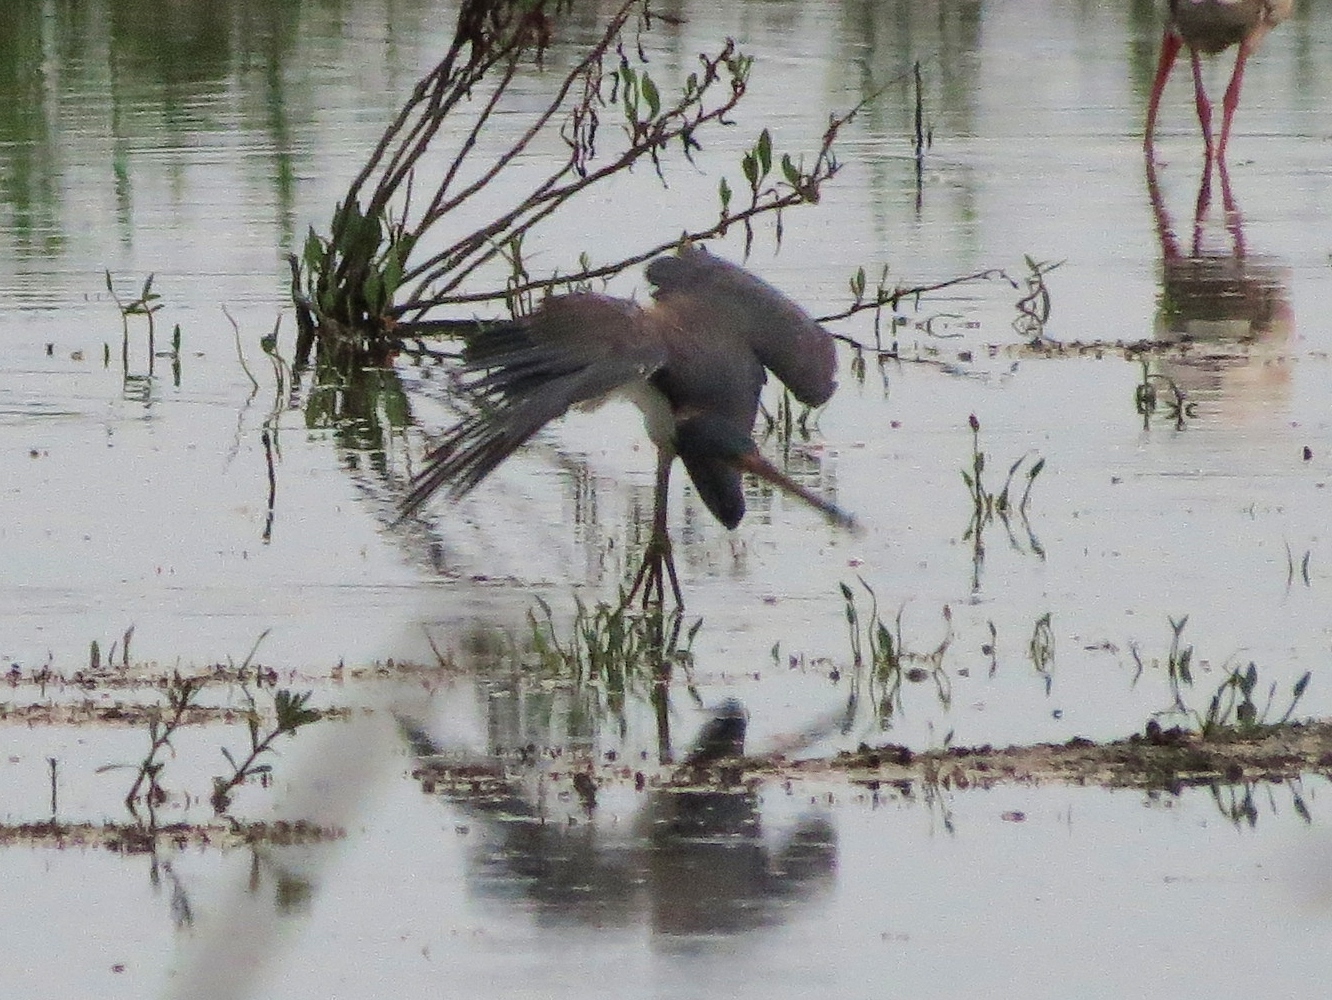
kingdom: Animalia
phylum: Chordata
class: Aves
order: Pelecaniformes
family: Ardeidae
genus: Egretta
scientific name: Egretta tricolor
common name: Tricolored heron
